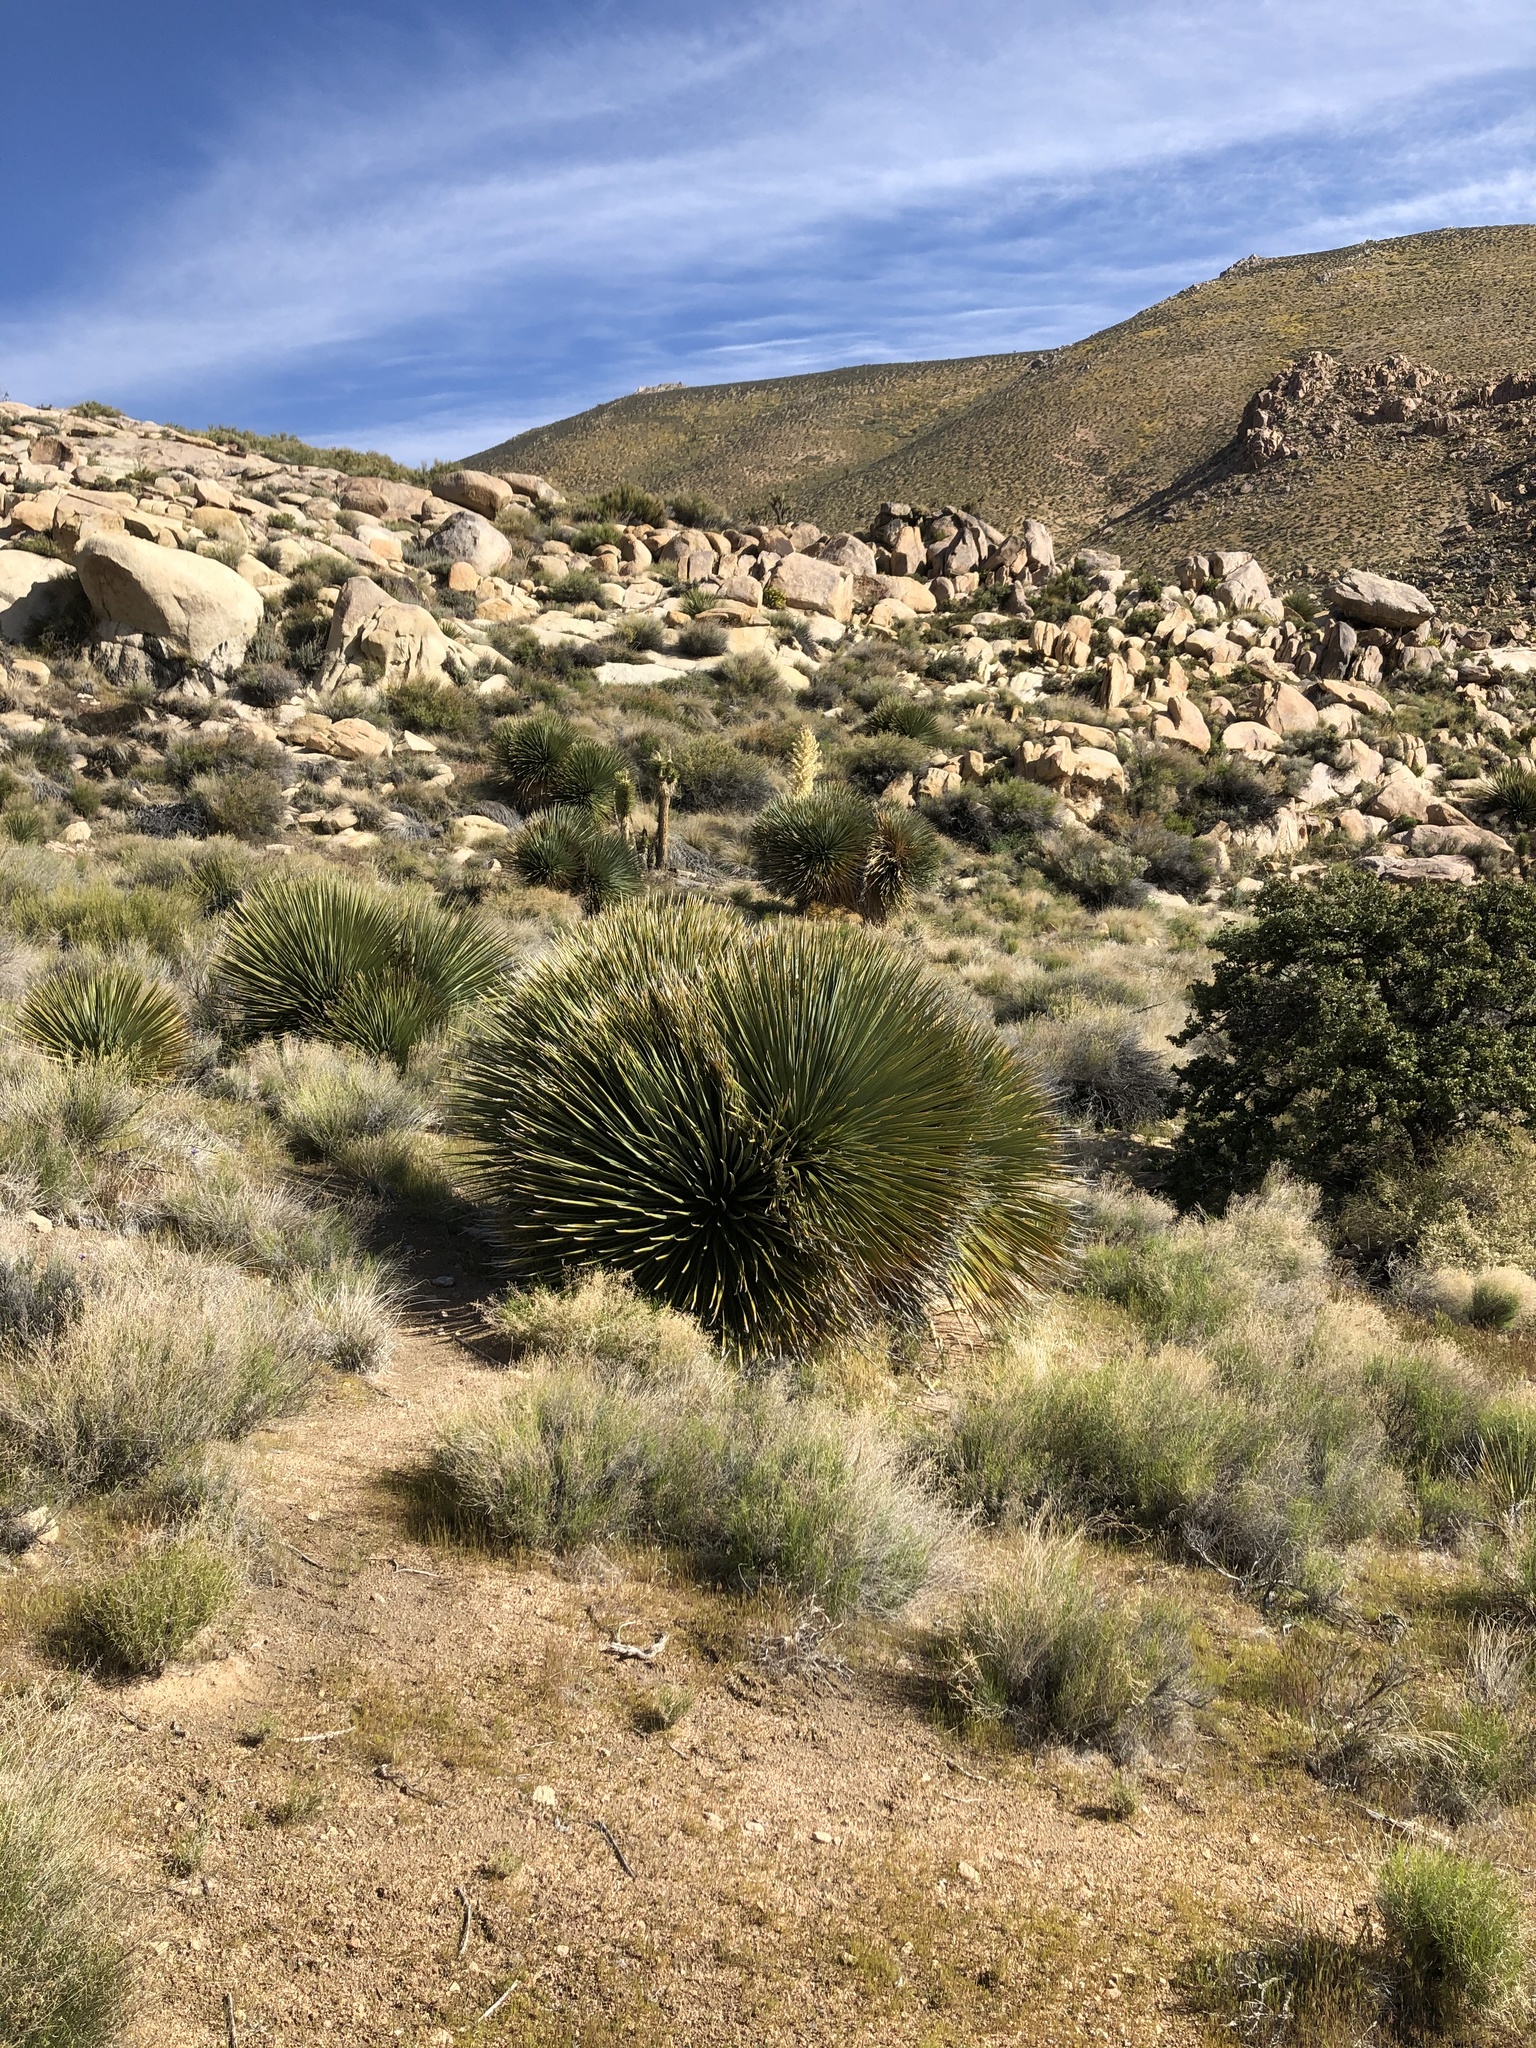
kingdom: Plantae
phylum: Tracheophyta
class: Liliopsida
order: Asparagales
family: Asparagaceae
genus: Nolina
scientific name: Nolina parryi
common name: Parry nolina
